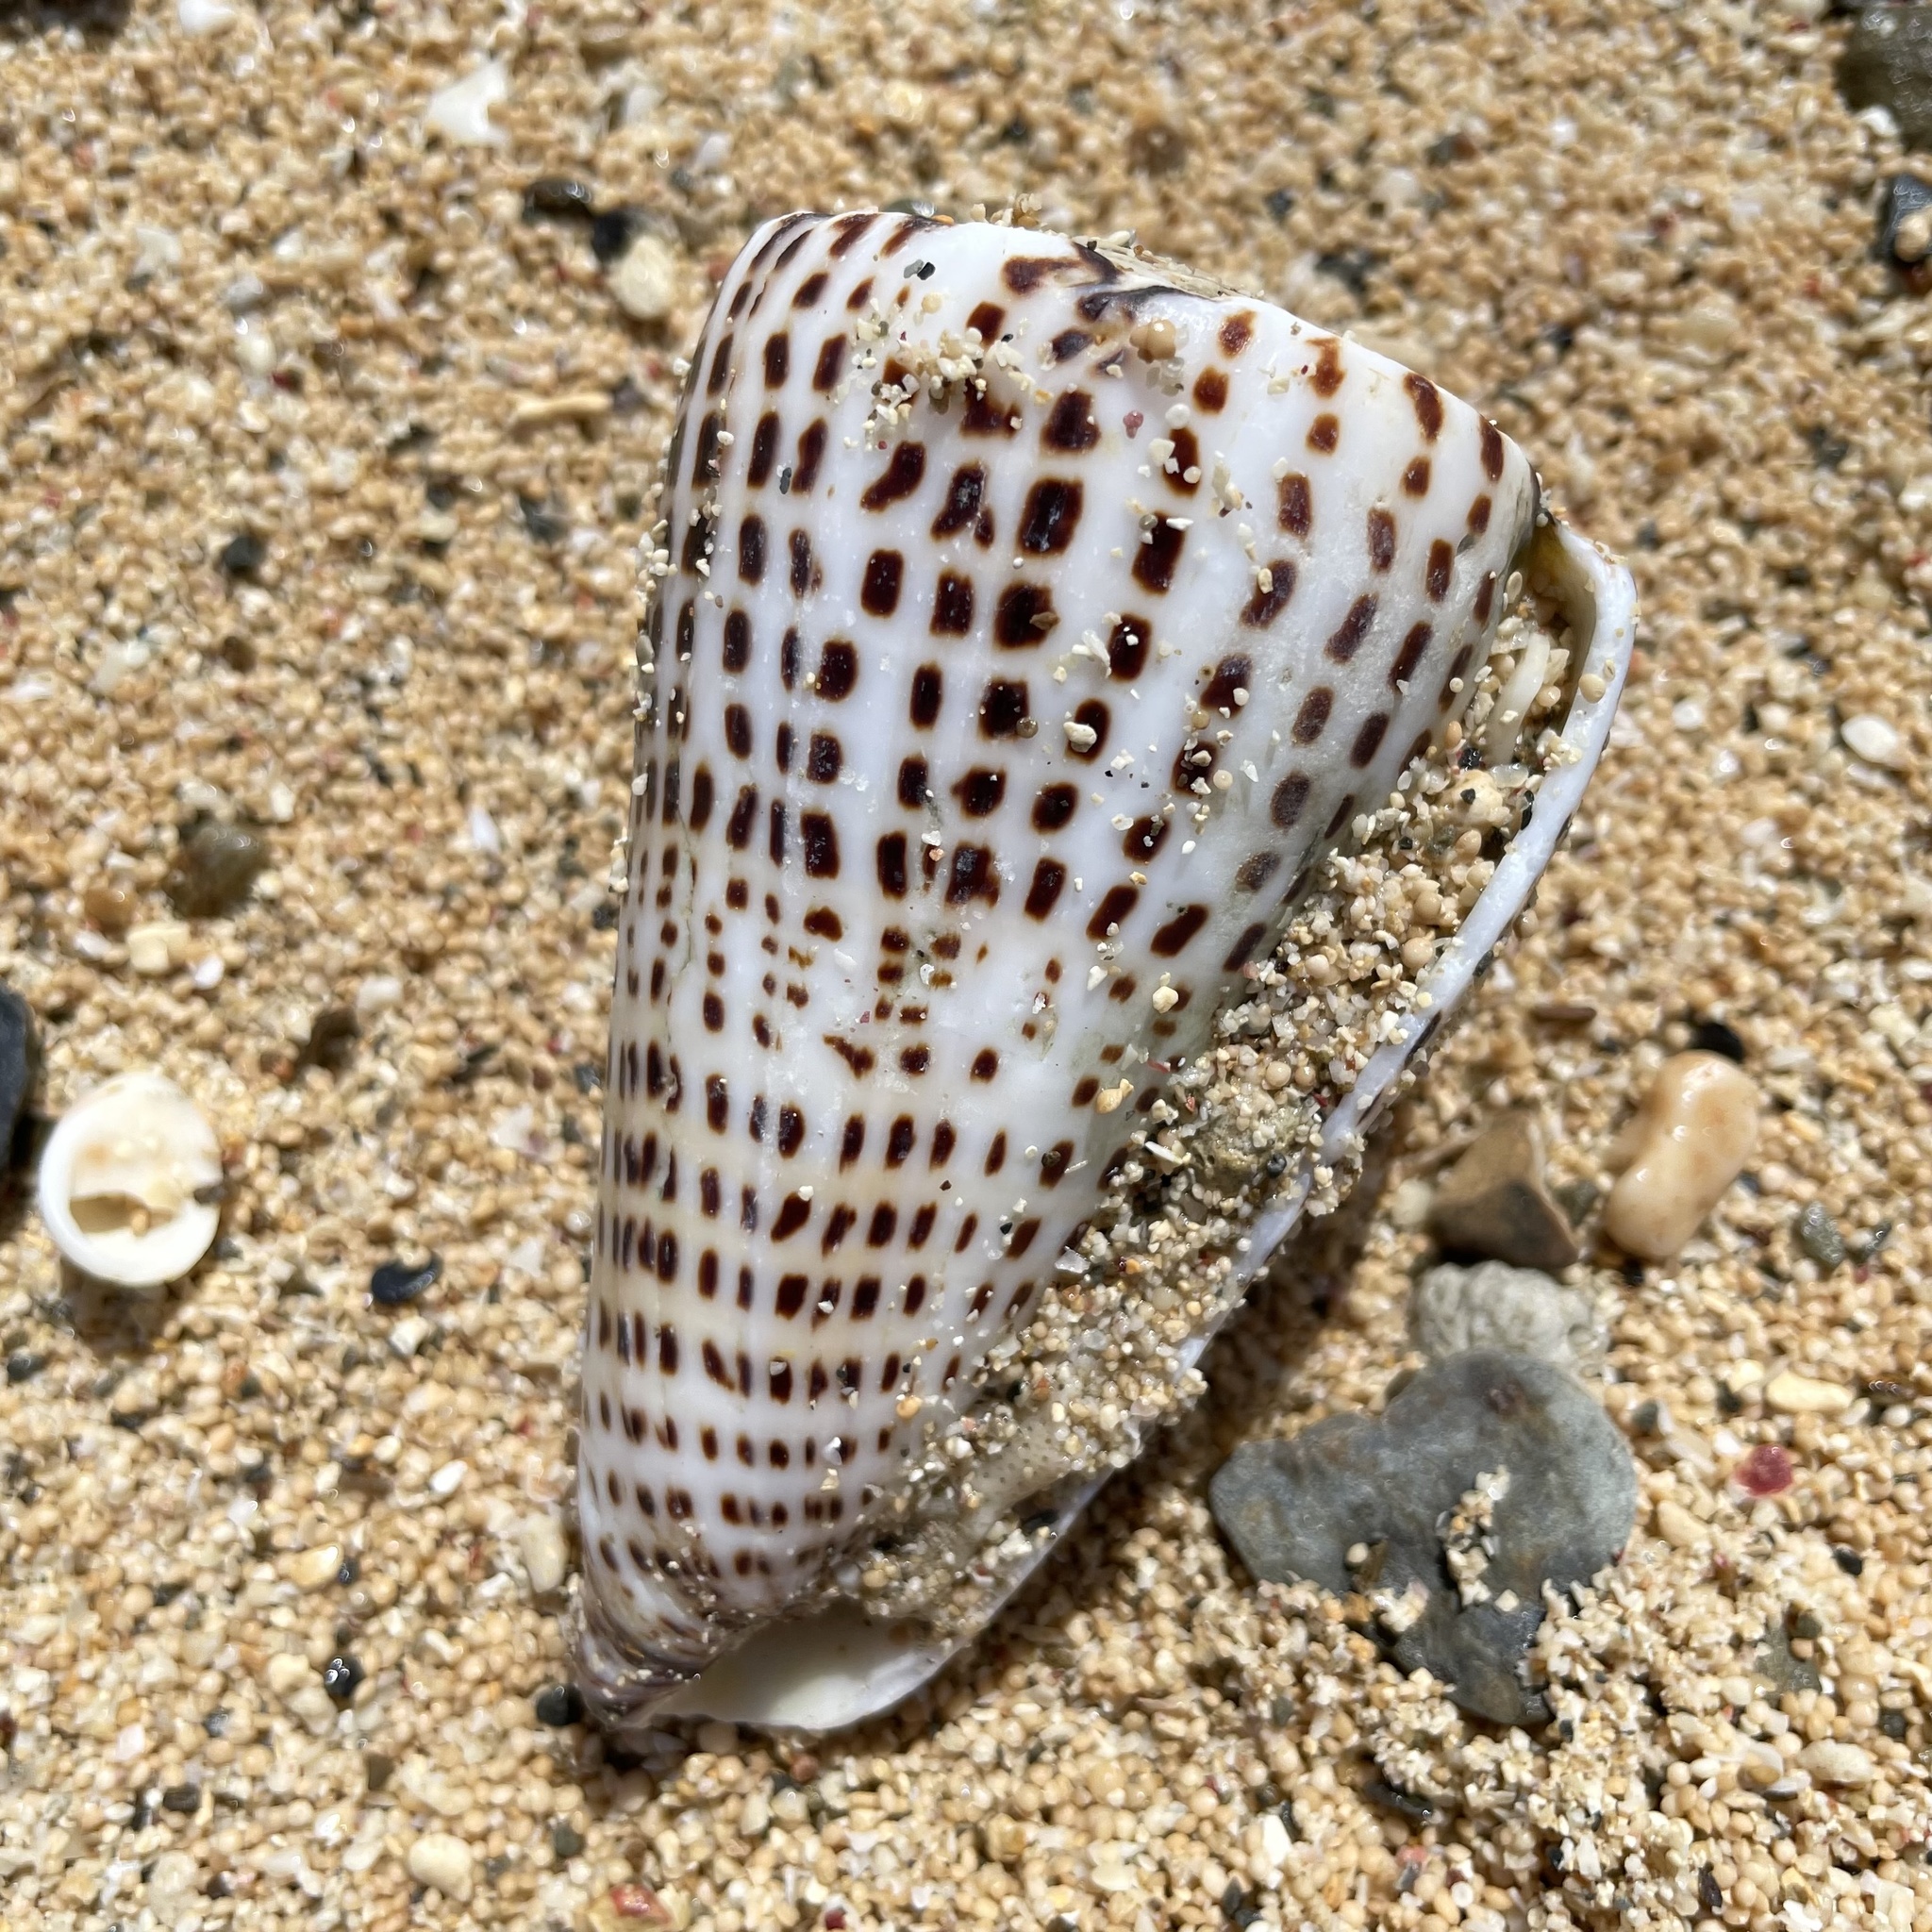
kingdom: Animalia
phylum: Mollusca
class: Gastropoda
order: Neogastropoda
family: Conidae
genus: Conus
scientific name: Conus leopardus
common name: Leopard cone
